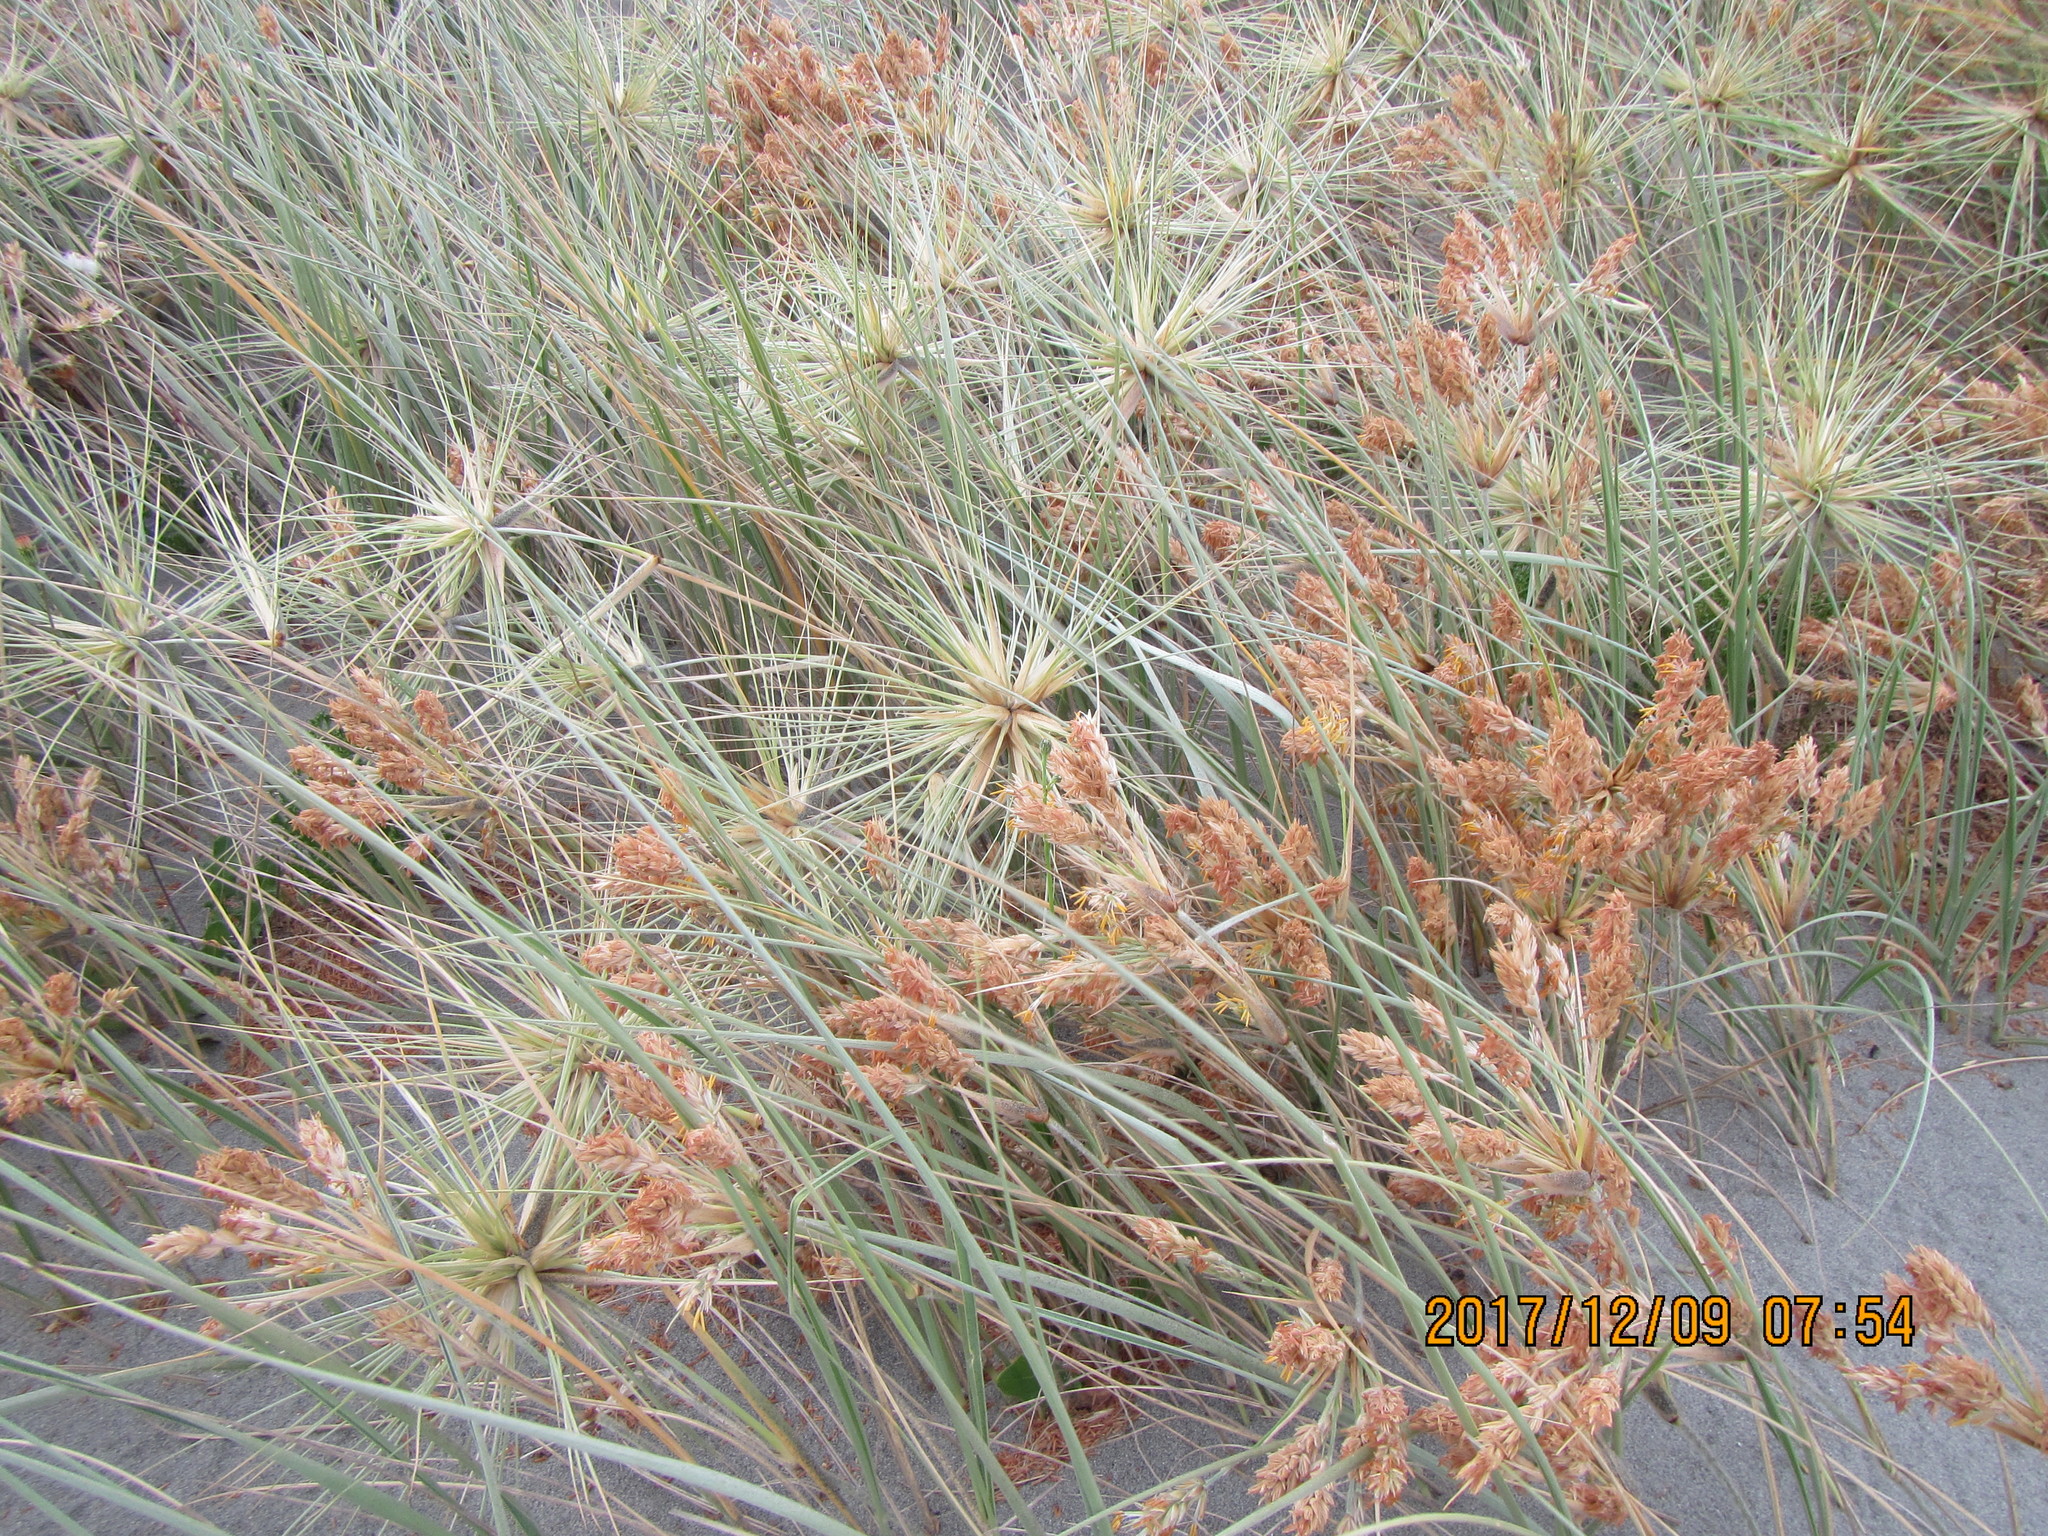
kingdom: Plantae
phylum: Tracheophyta
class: Liliopsida
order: Poales
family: Poaceae
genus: Spinifex
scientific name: Spinifex sericeus
